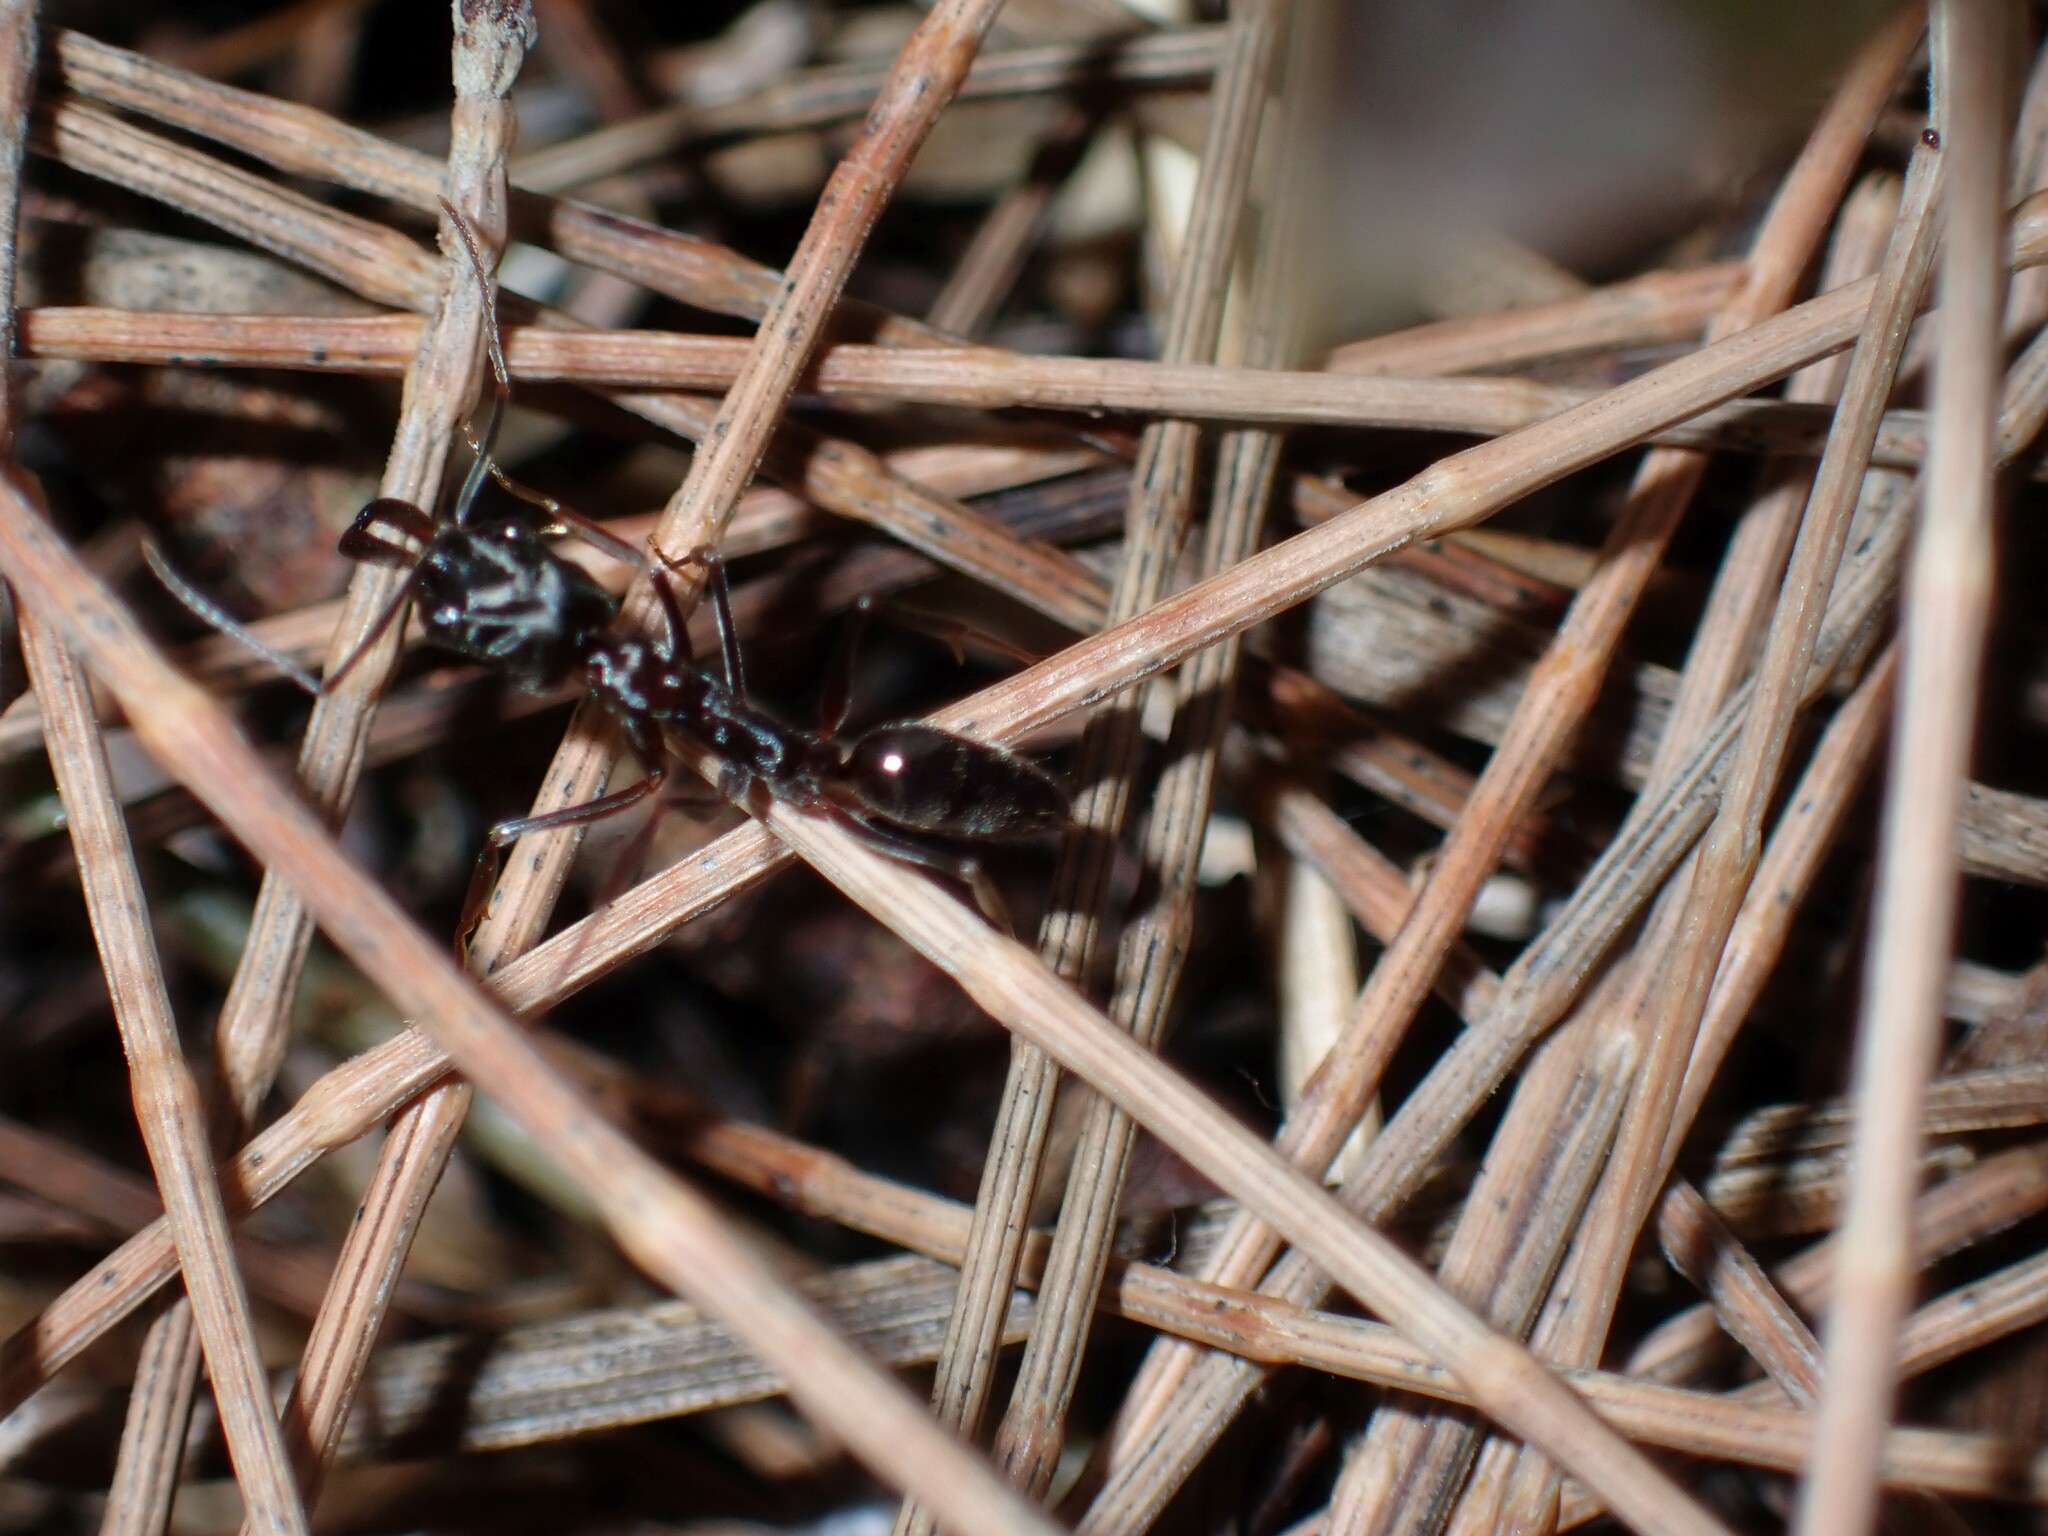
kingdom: Animalia
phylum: Arthropoda
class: Insecta
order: Hymenoptera
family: Formicidae
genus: Odontomachus
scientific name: Odontomachus simillimus
